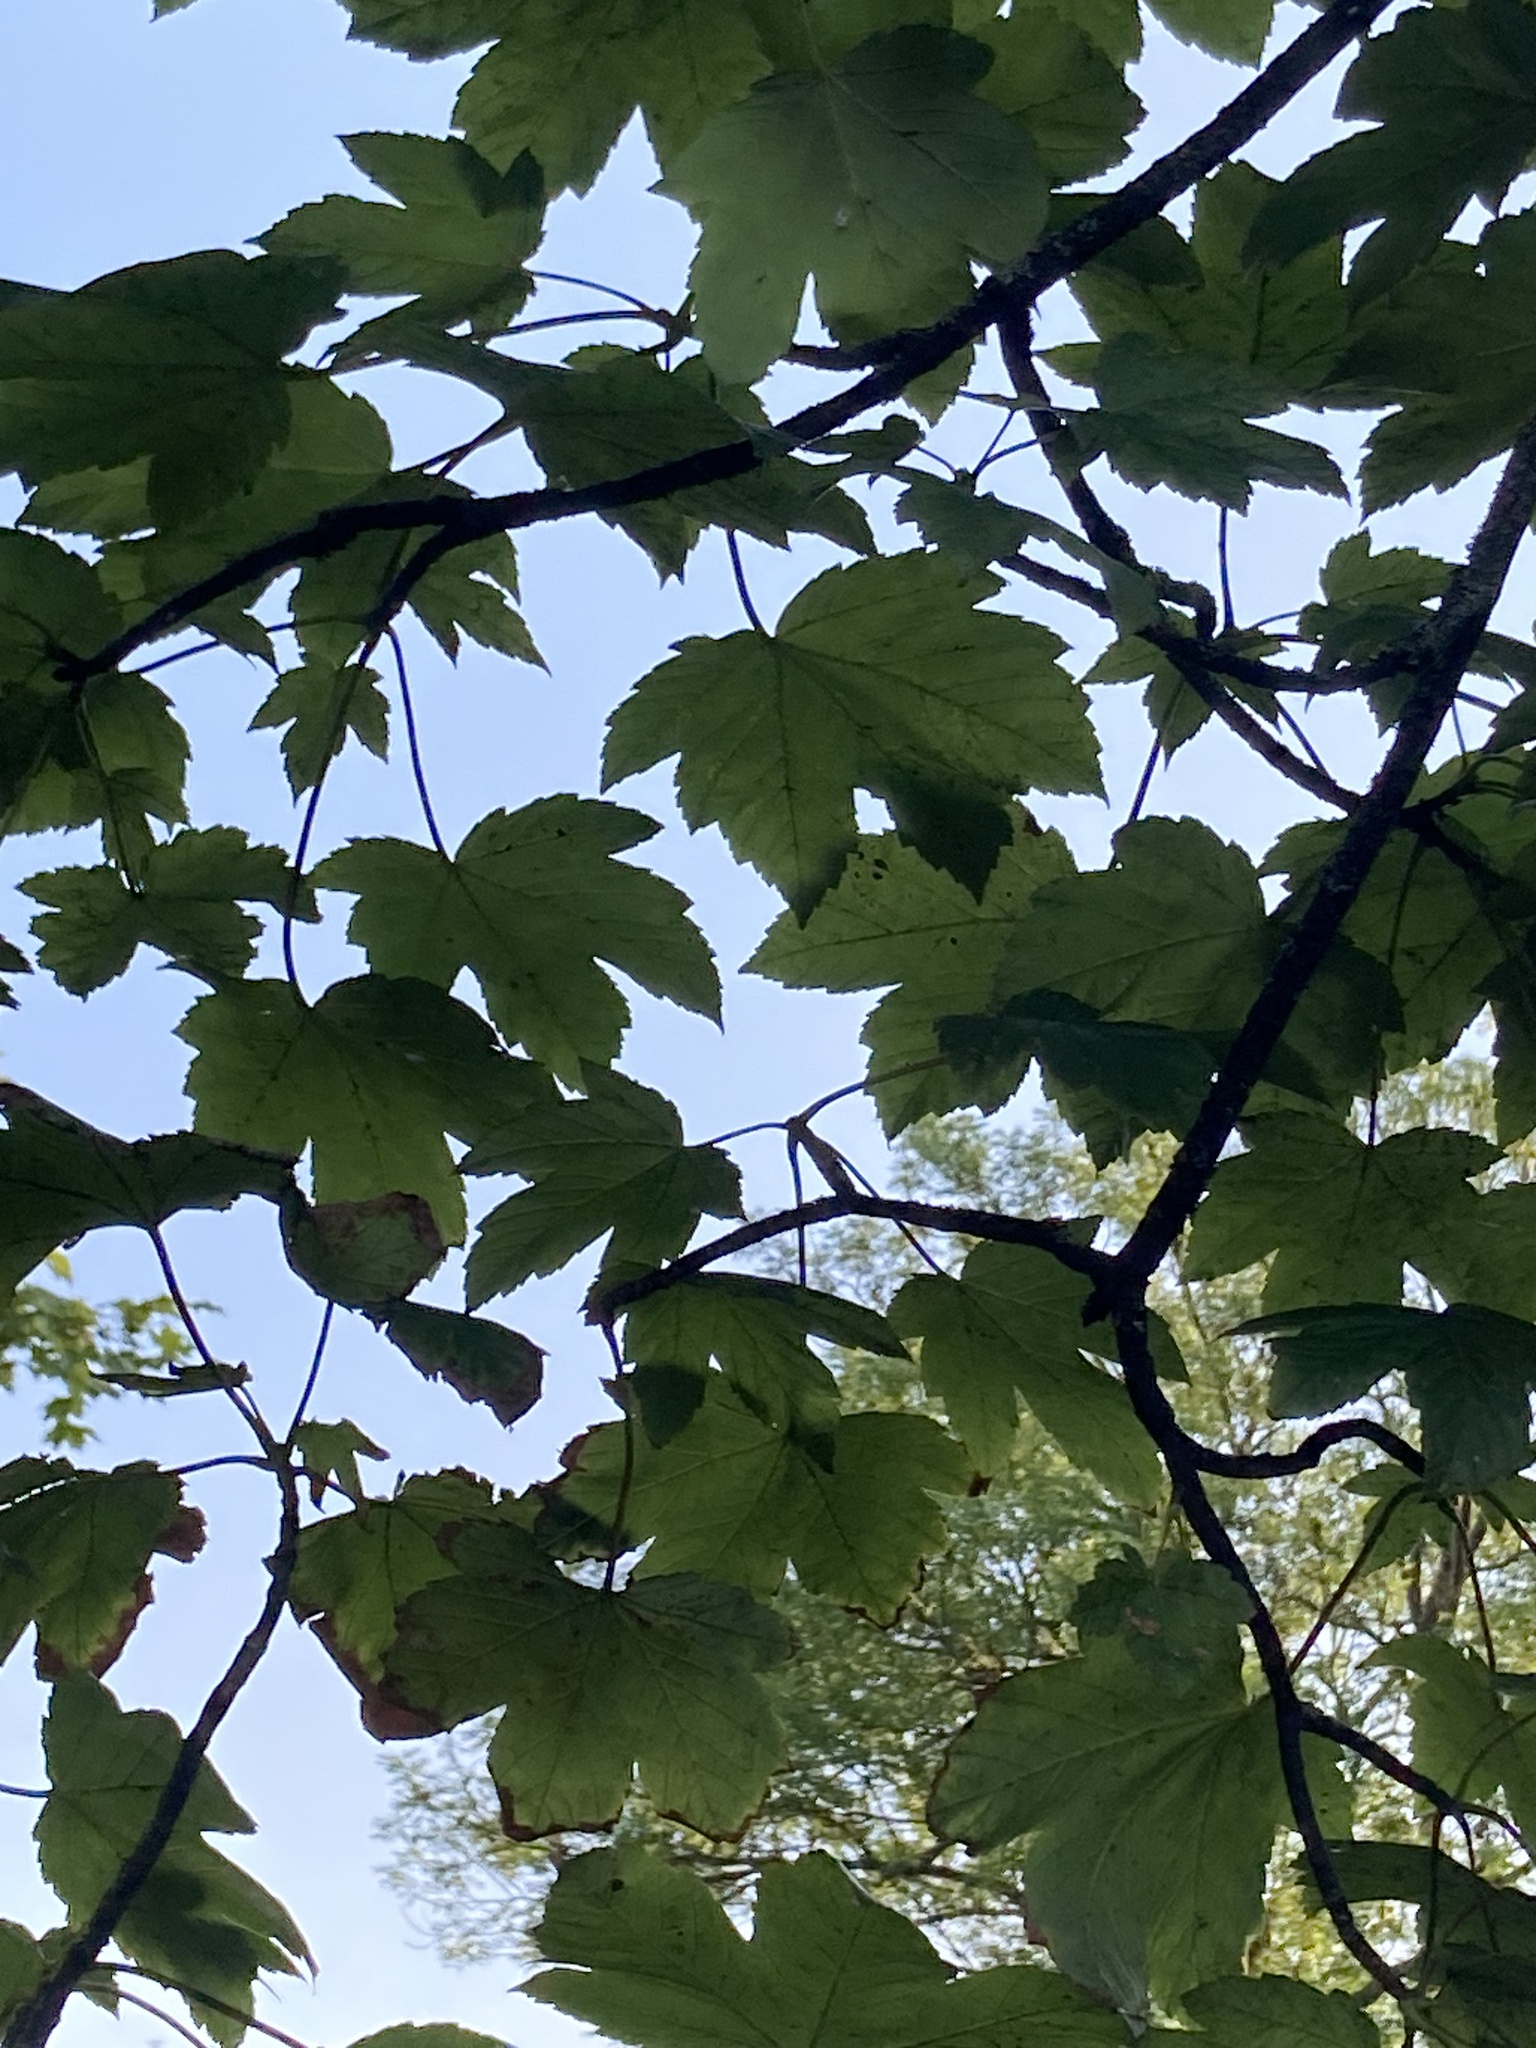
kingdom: Plantae
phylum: Tracheophyta
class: Magnoliopsida
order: Sapindales
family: Sapindaceae
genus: Acer
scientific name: Acer pseudoplatanus
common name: Sycamore
